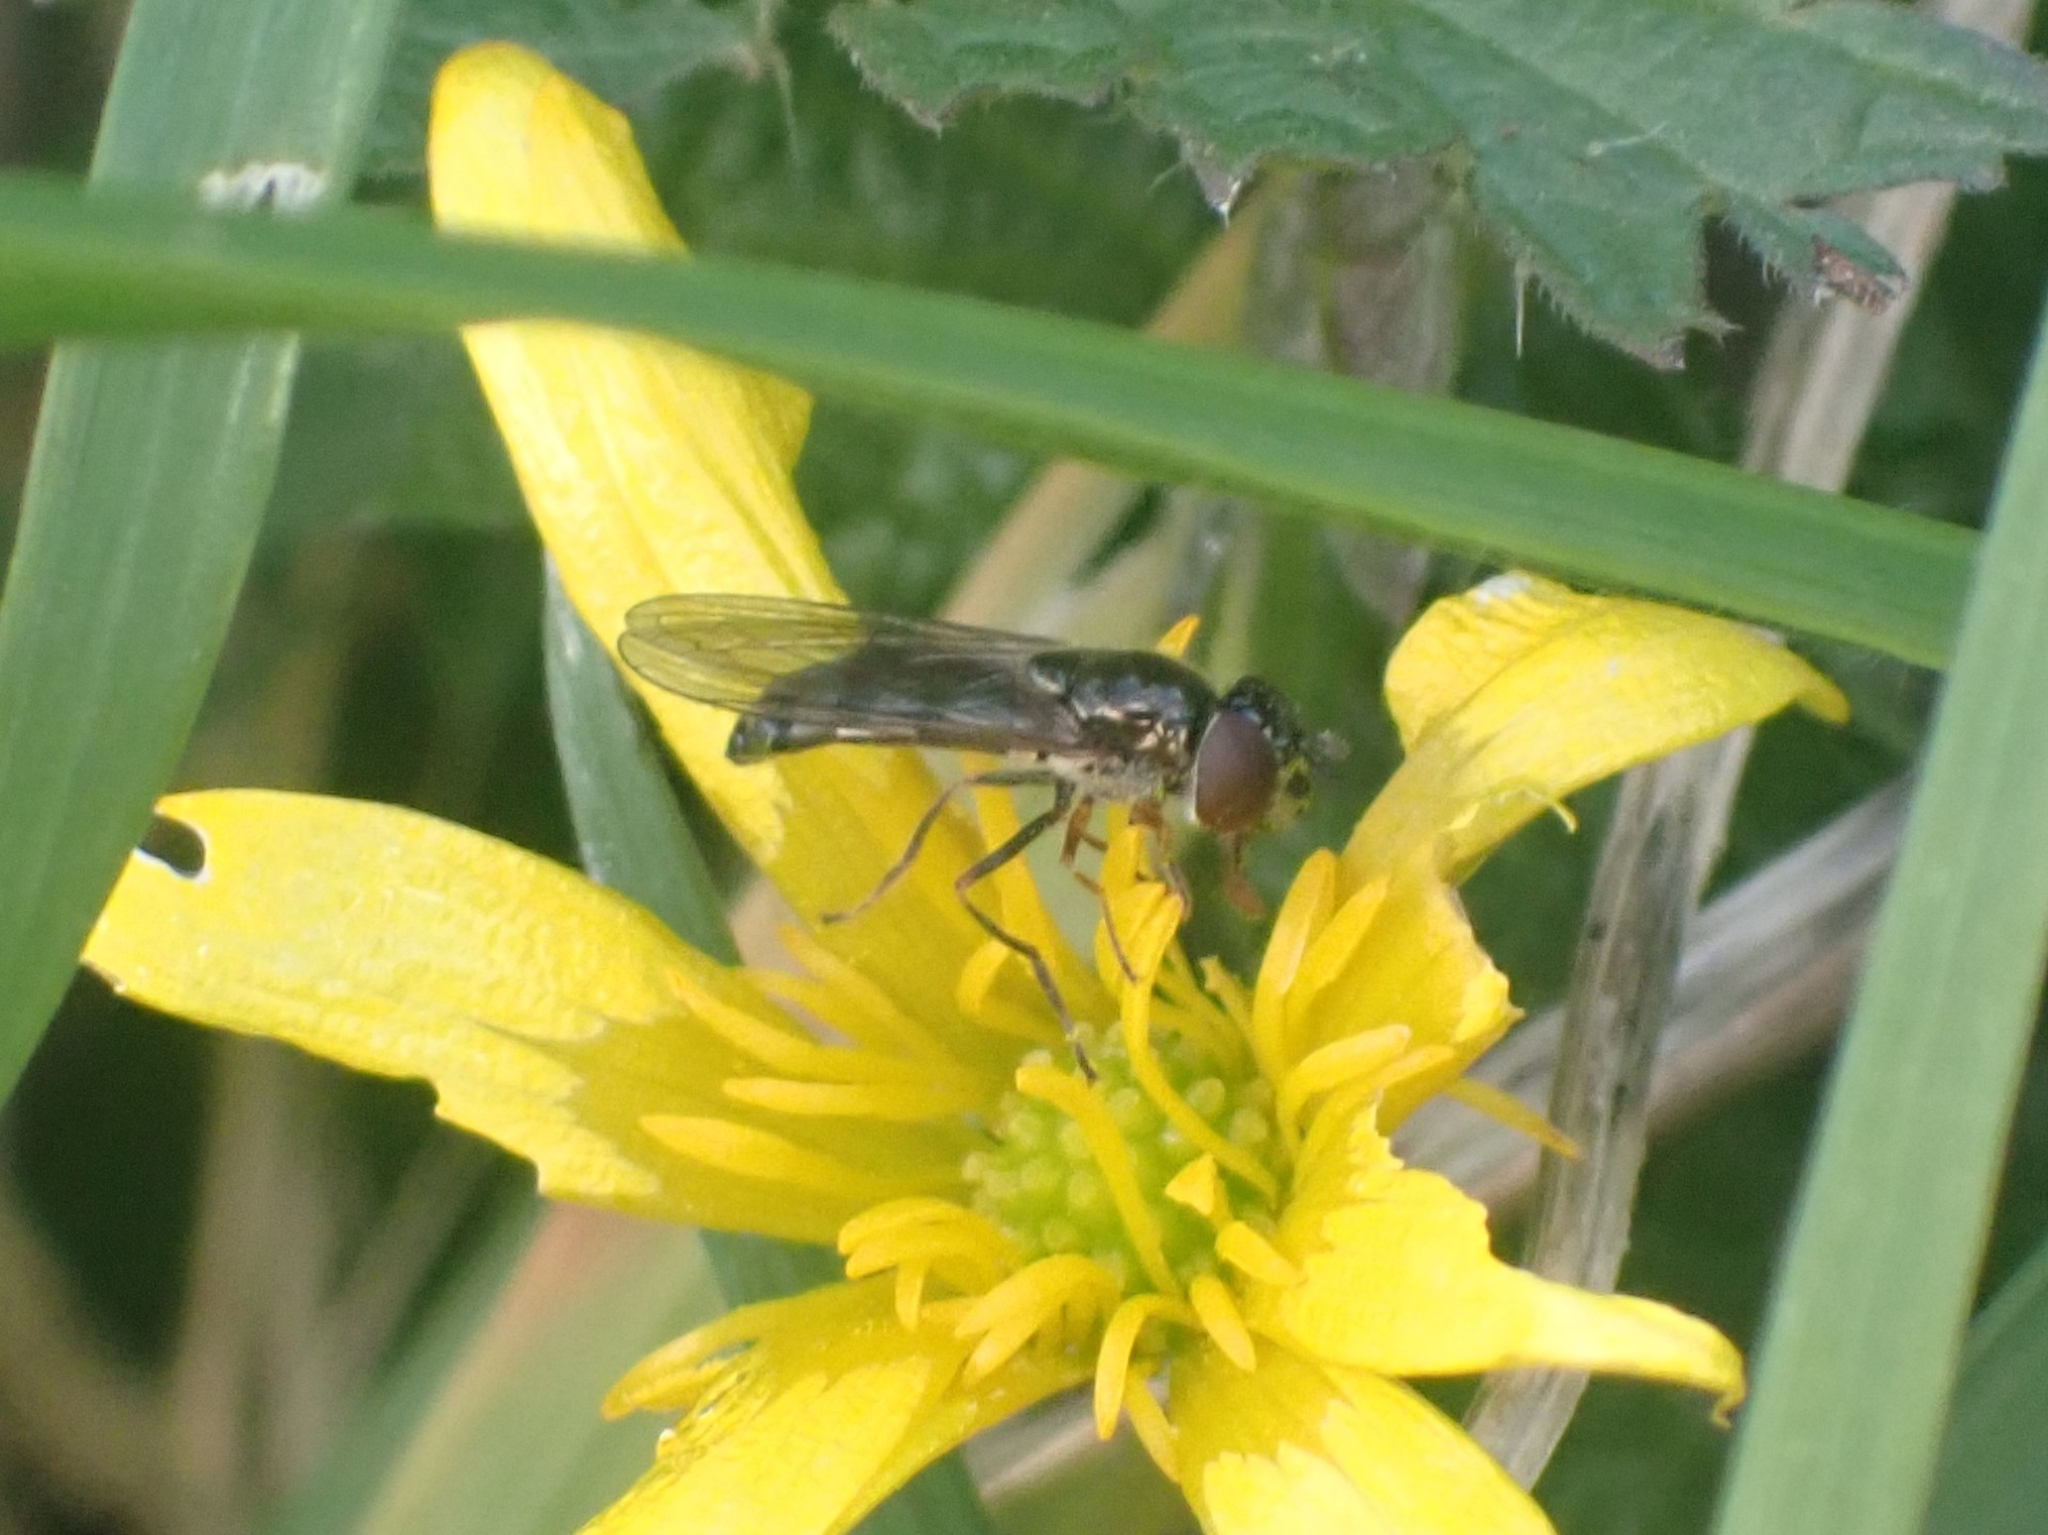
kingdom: Animalia
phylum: Arthropoda
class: Insecta
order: Diptera
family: Syrphidae
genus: Platycheirus
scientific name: Platycheirus albimanus
